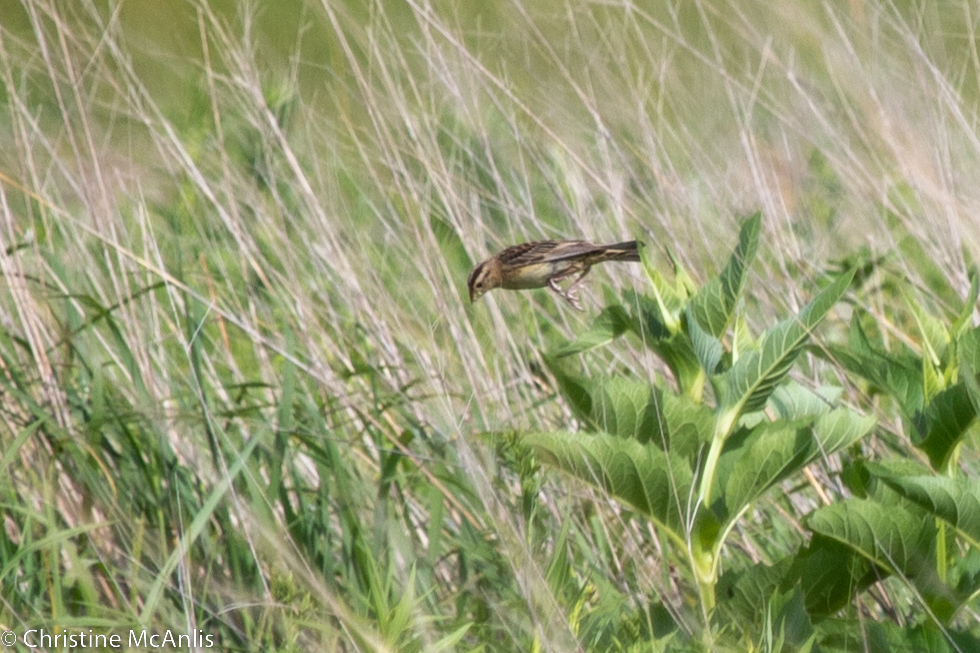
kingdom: Animalia
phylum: Chordata
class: Aves
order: Passeriformes
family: Icteridae
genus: Dolichonyx
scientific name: Dolichonyx oryzivorus
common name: Bobolink
